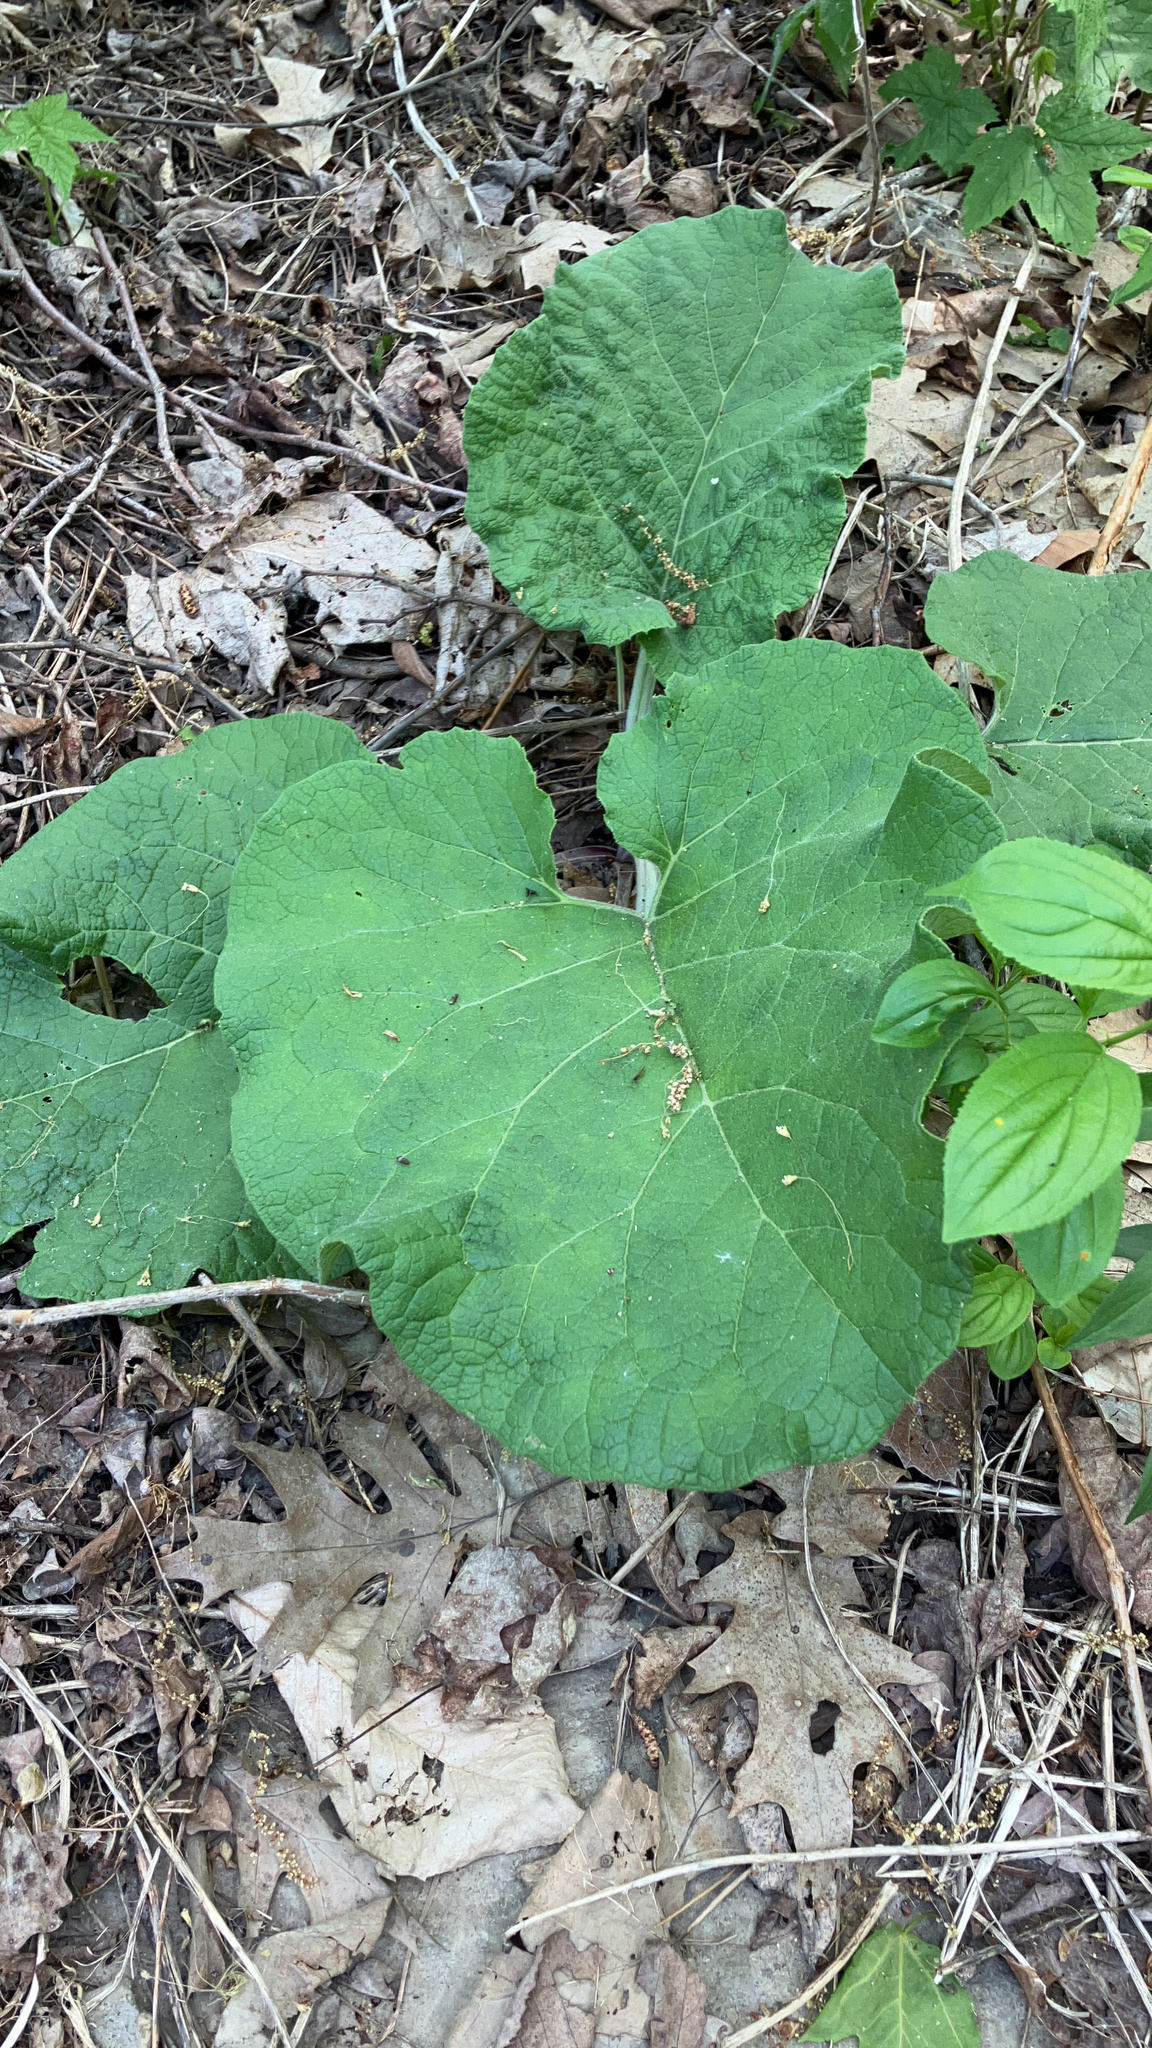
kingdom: Plantae
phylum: Tracheophyta
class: Magnoliopsida
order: Asterales
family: Asteraceae
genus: Arctium
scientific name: Arctium
